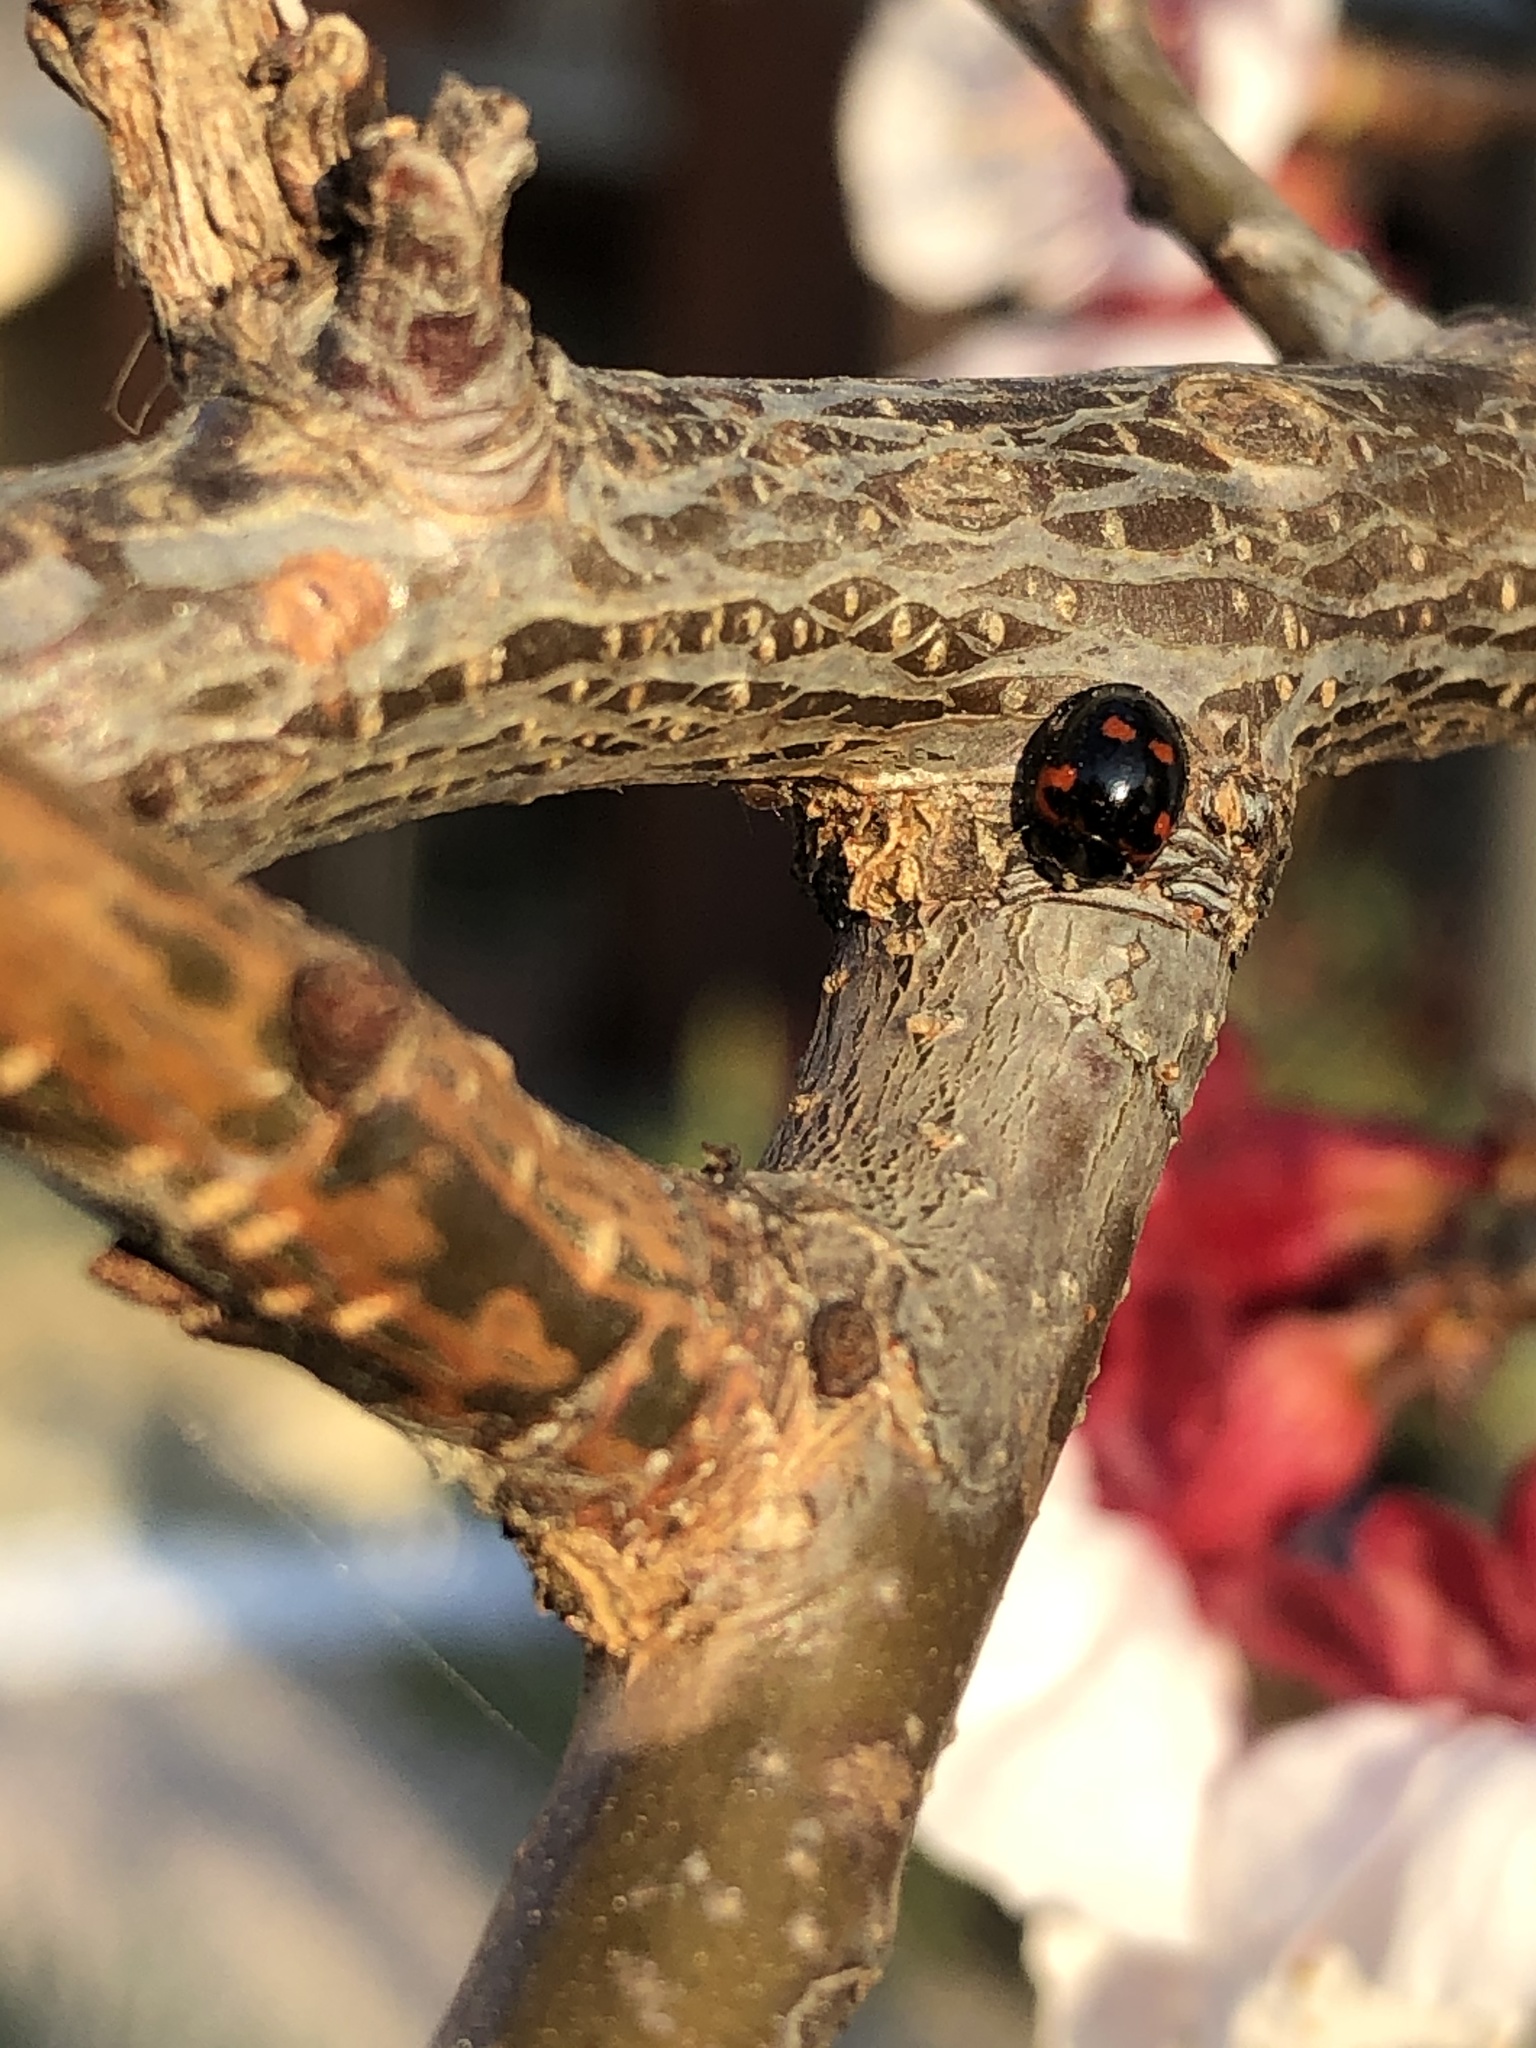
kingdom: Animalia
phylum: Arthropoda
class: Insecta
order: Coleoptera
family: Coccinellidae
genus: Brumus
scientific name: Brumus quadripustulatus
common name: Ladybird beetle
